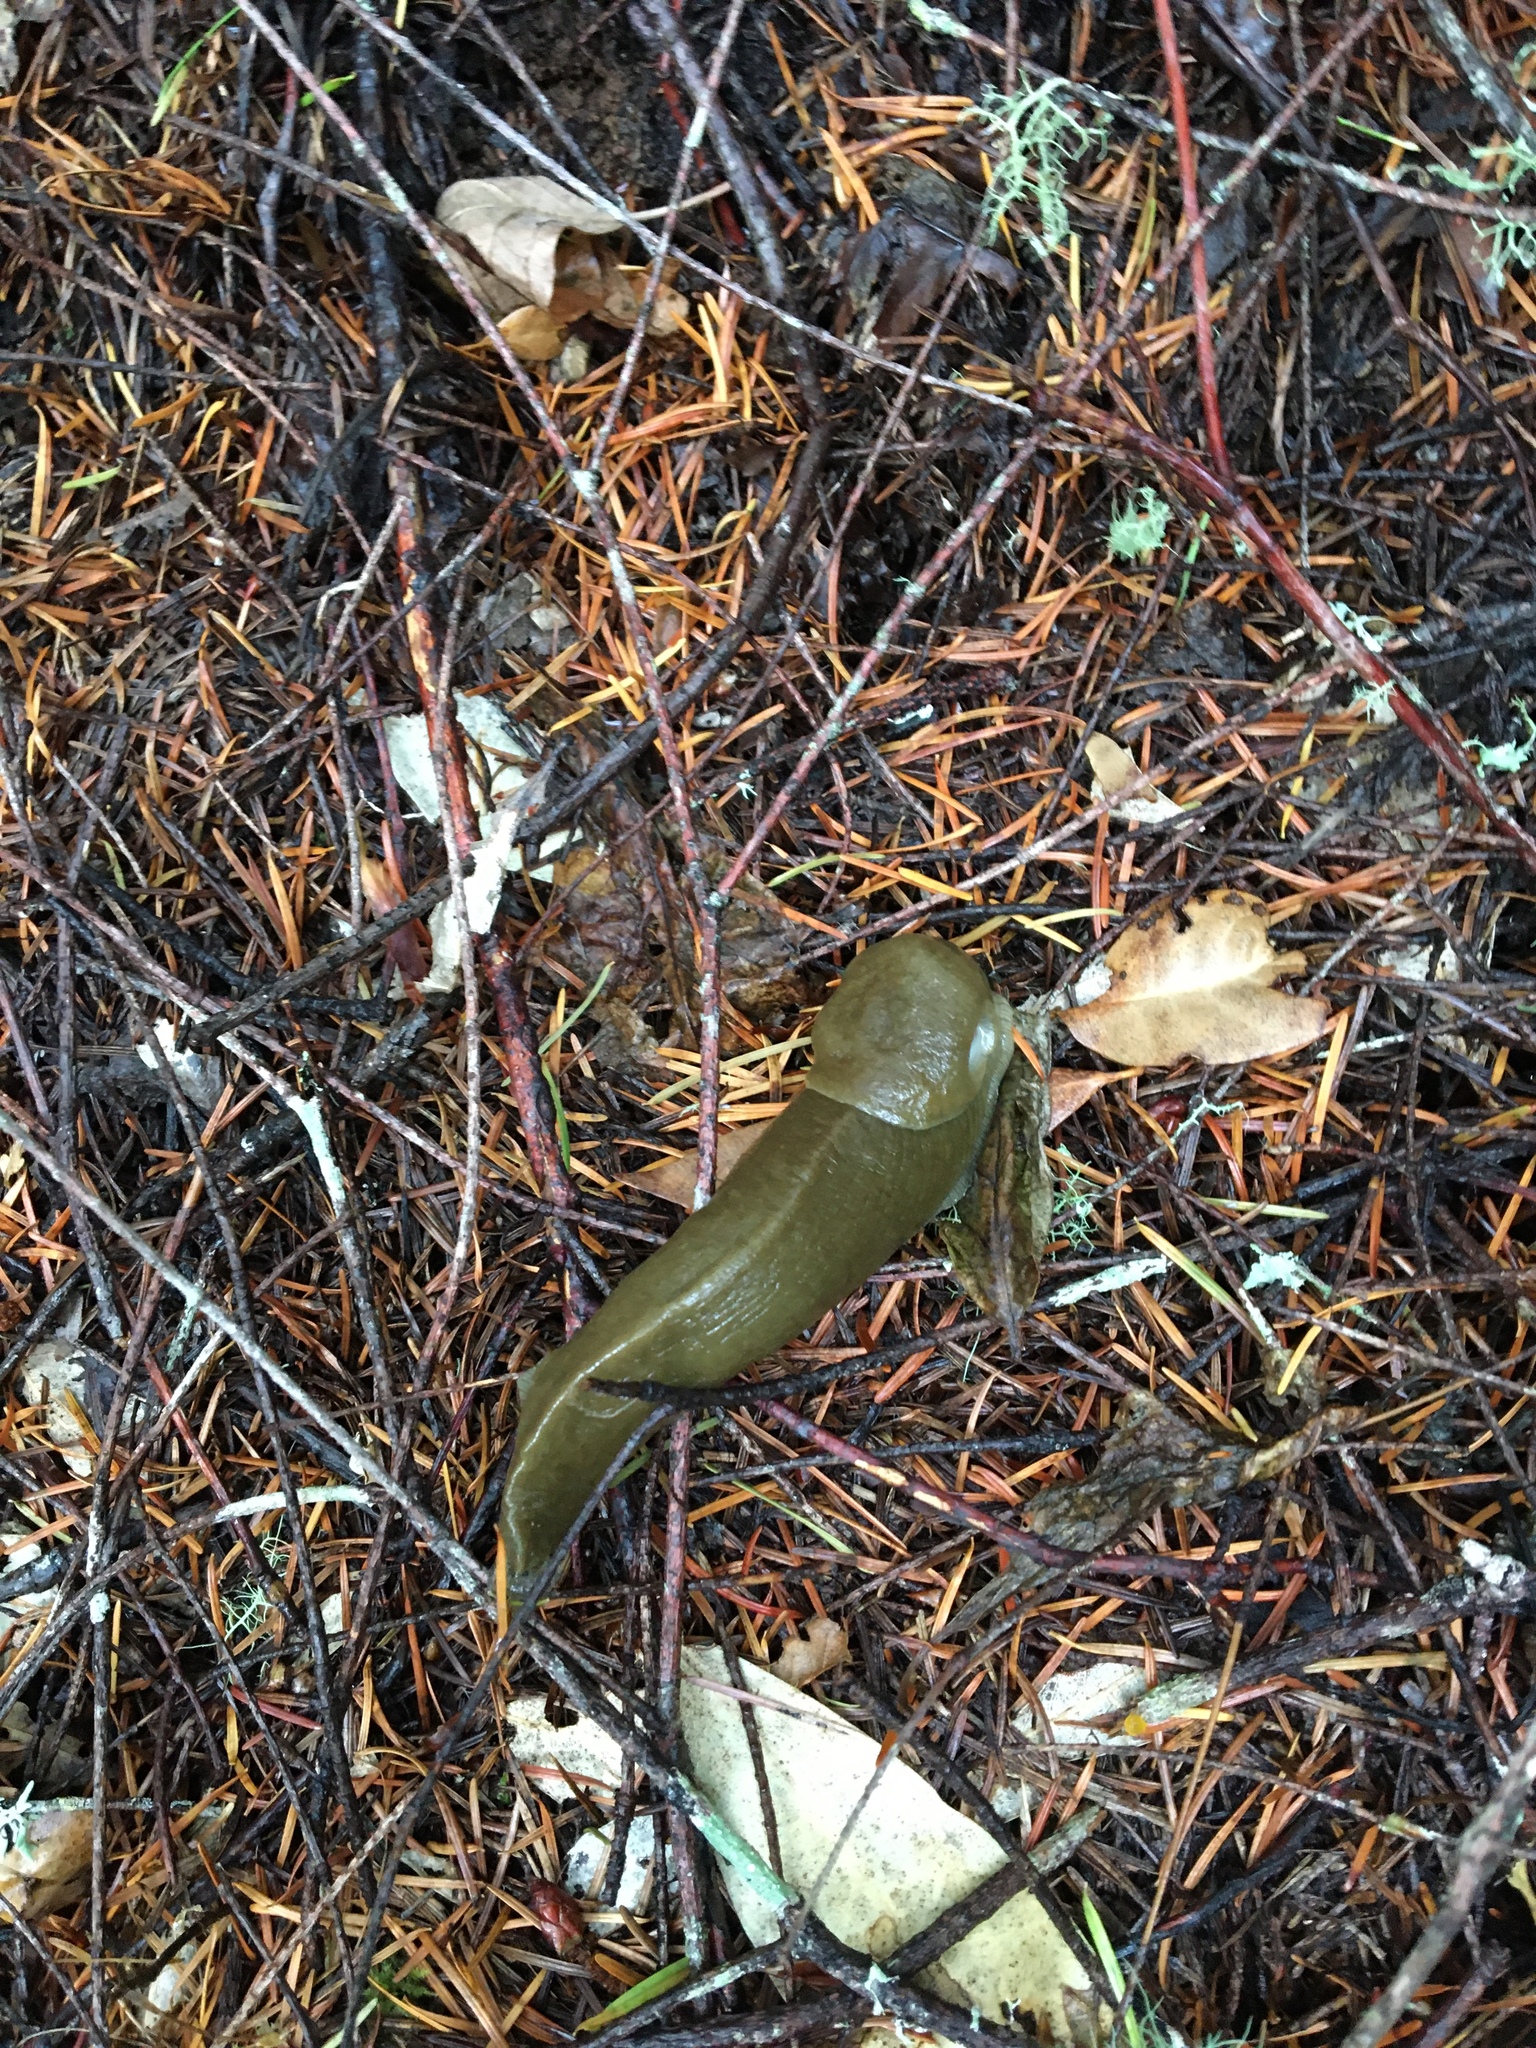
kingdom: Animalia
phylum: Mollusca
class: Gastropoda
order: Stylommatophora
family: Ariolimacidae
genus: Ariolimax
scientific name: Ariolimax columbianus
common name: Pacific banana slug
